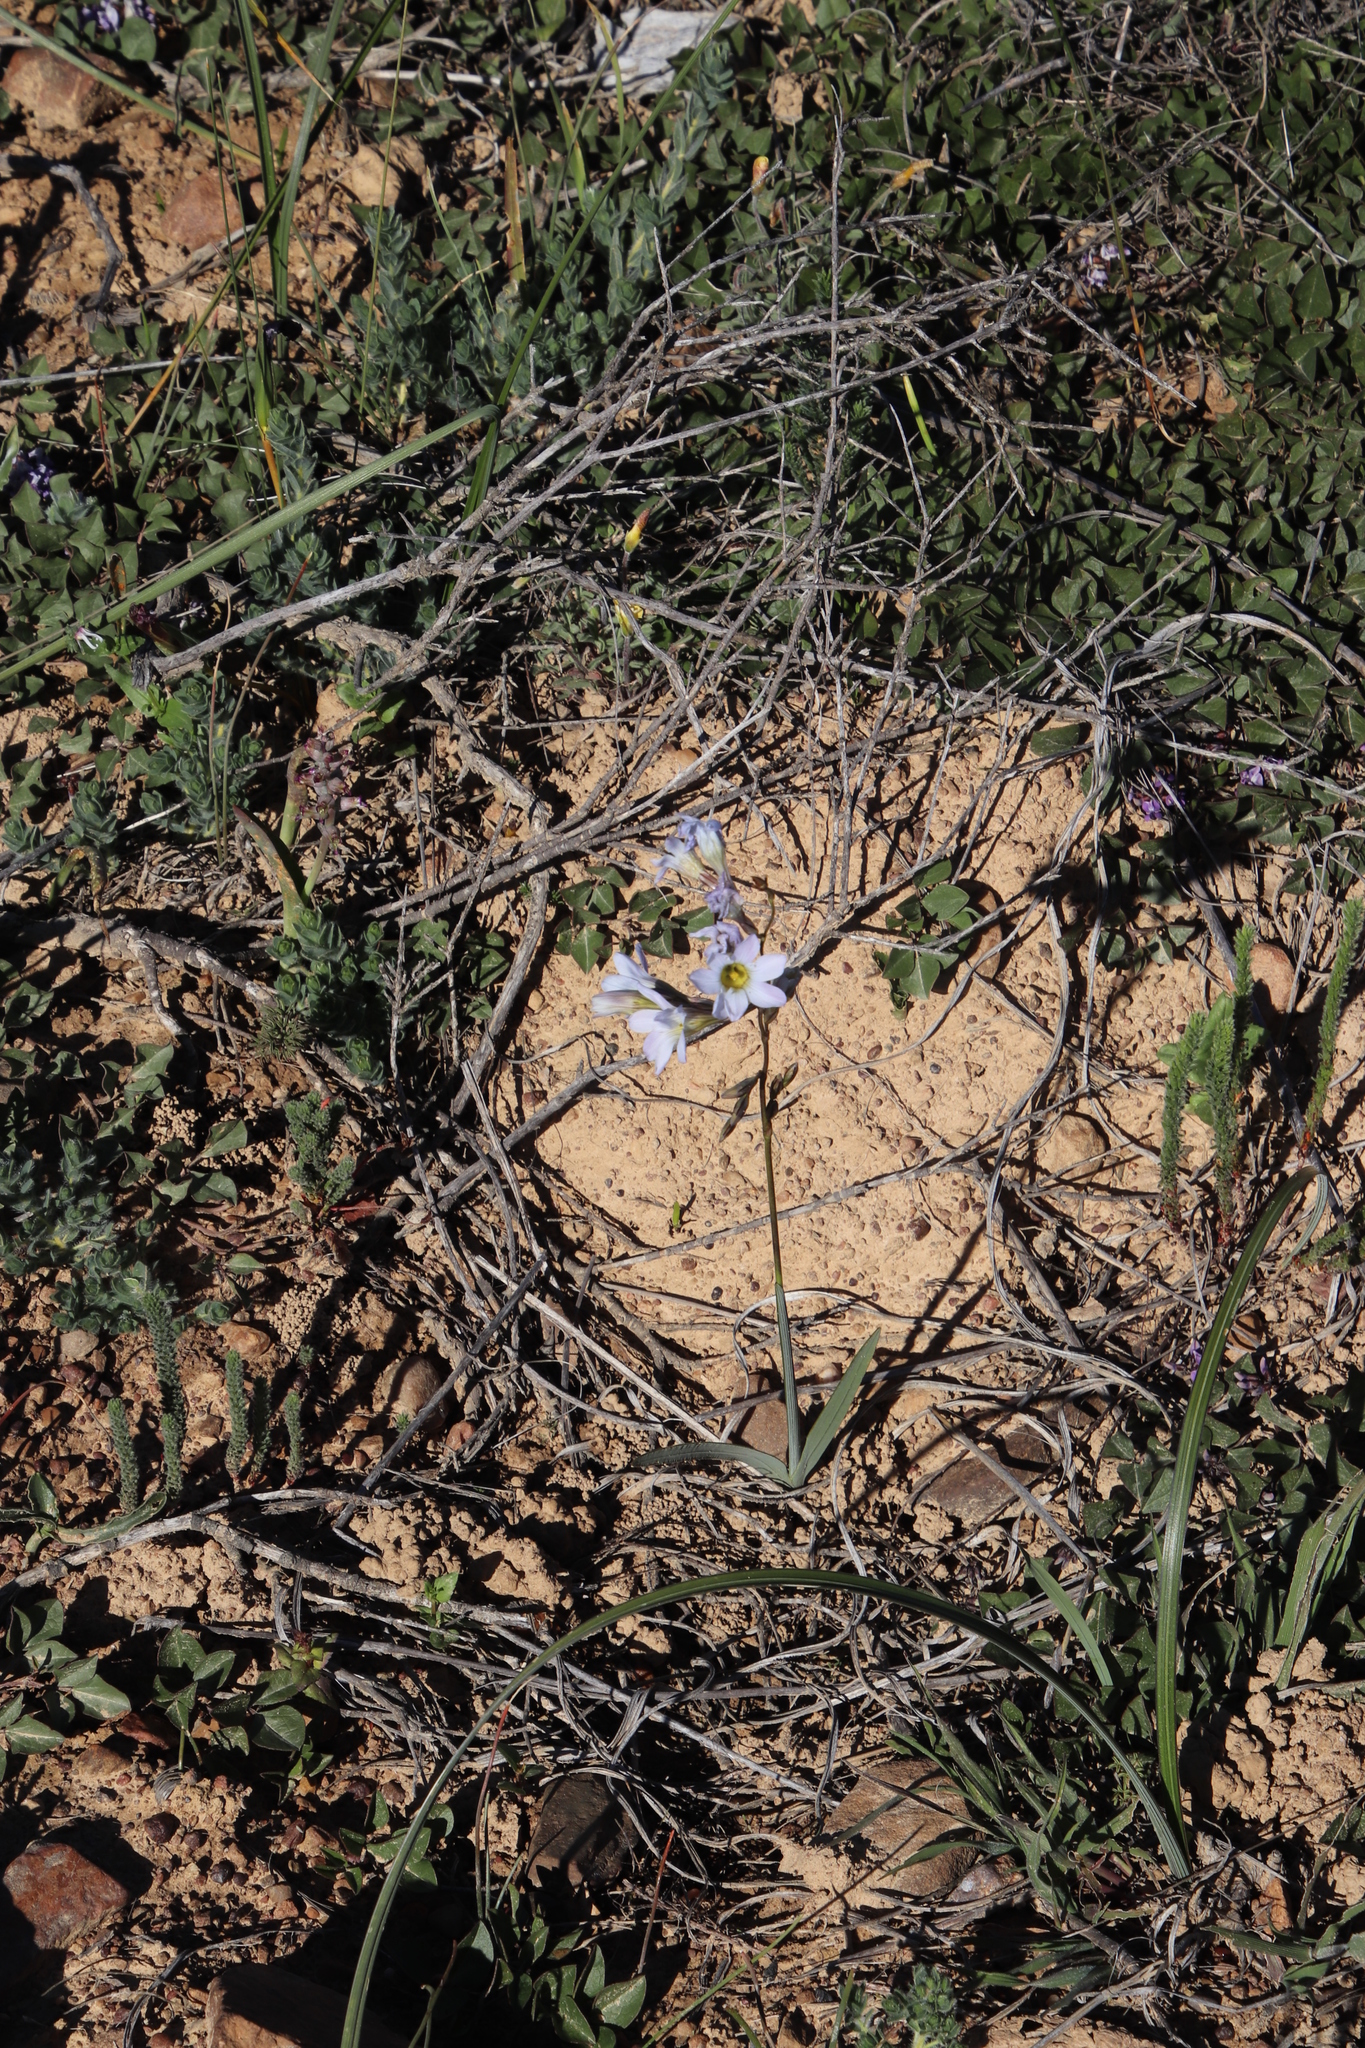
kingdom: Plantae
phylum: Tracheophyta
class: Liliopsida
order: Asparagales
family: Iridaceae
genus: Ixia
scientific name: Ixia rapunculoides
